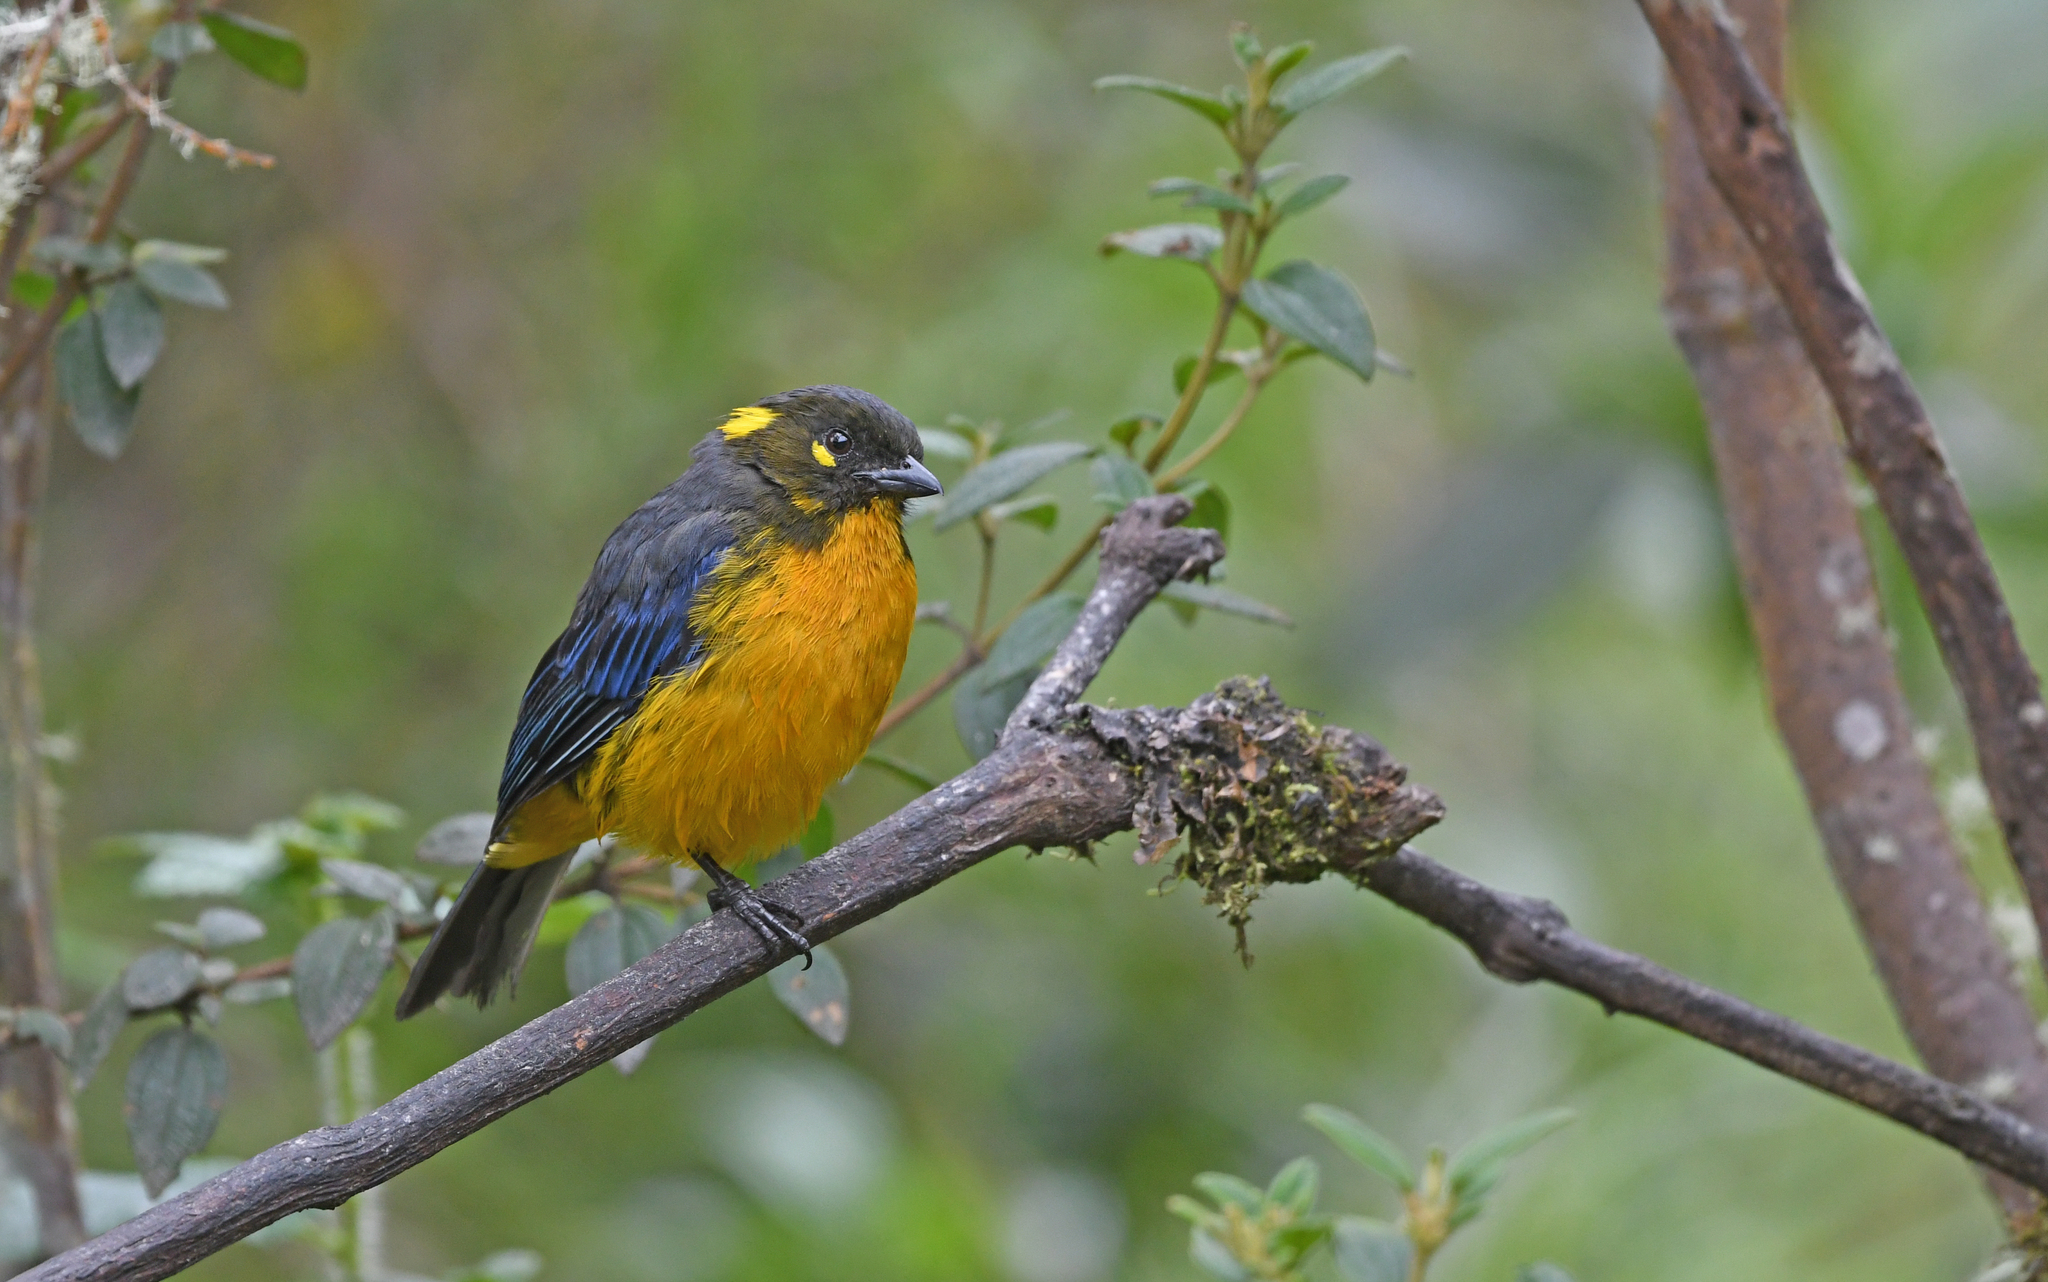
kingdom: Animalia
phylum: Chordata
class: Aves
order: Passeriformes
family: Thraupidae
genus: Anisognathus
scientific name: Anisognathus lacrymosus
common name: Lacrimose mountain-tanager
